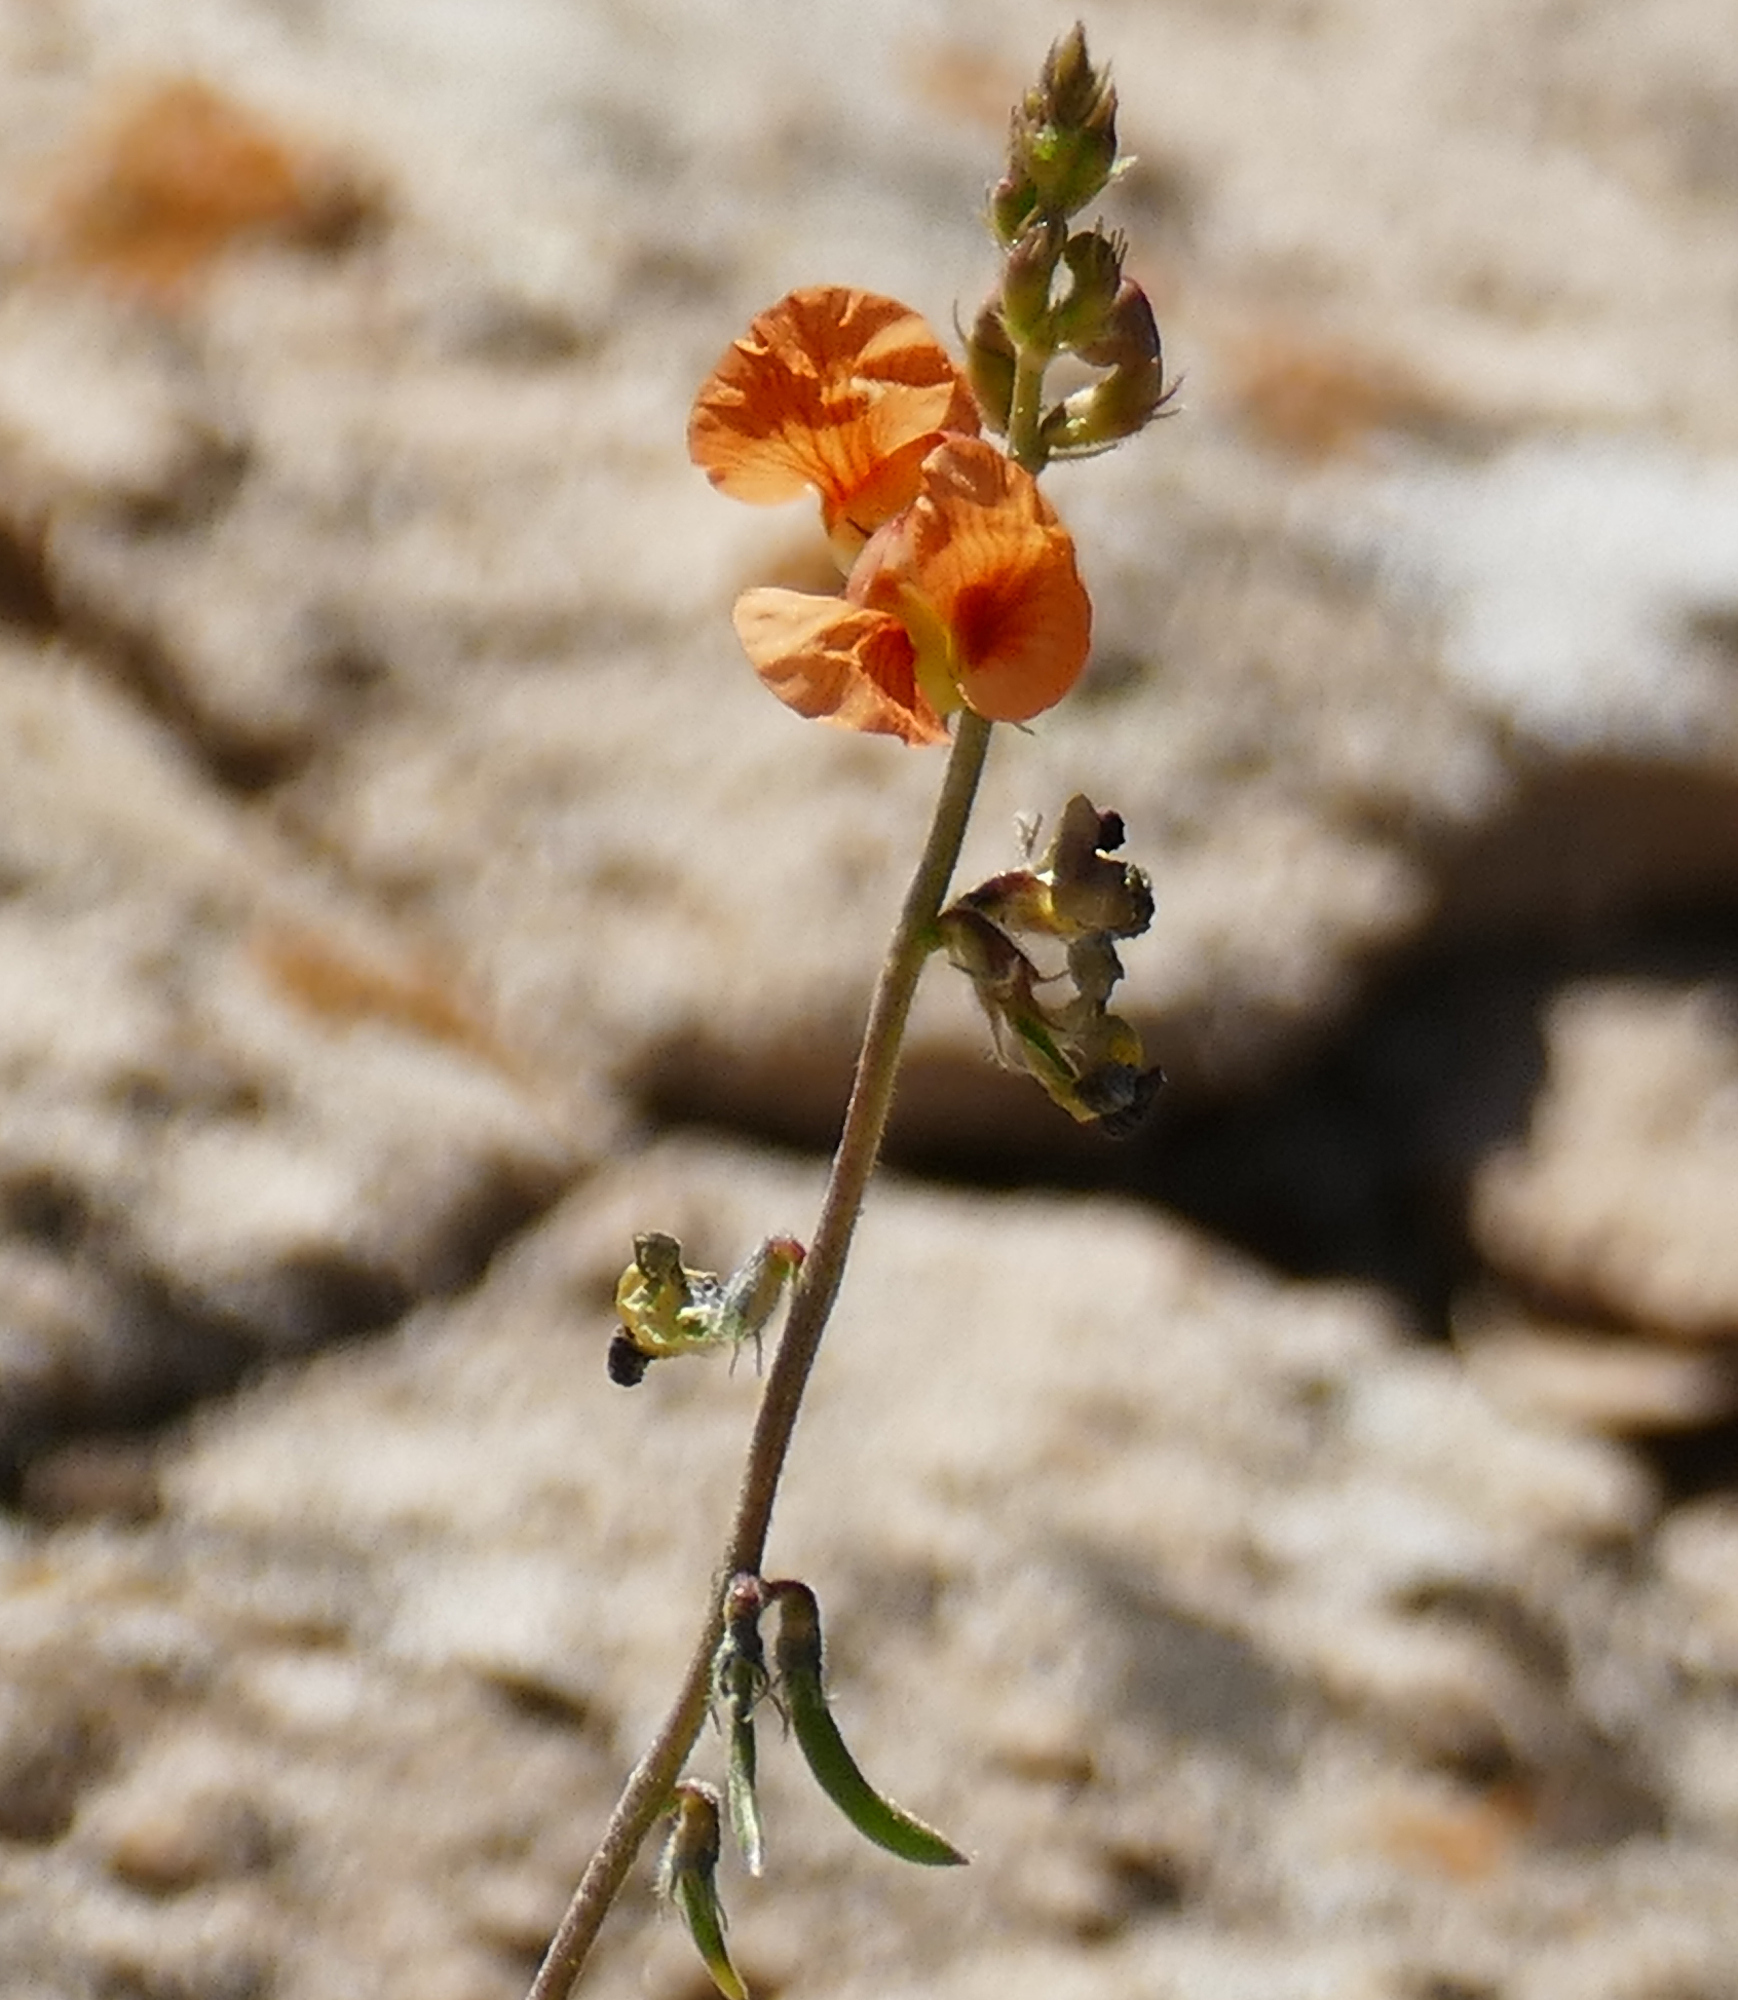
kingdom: Plantae
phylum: Tracheophyta
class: Magnoliopsida
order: Fabales
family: Fabaceae
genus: Macroptilium
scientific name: Macroptilium gibbosifolium
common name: Variableleaf bushbean
